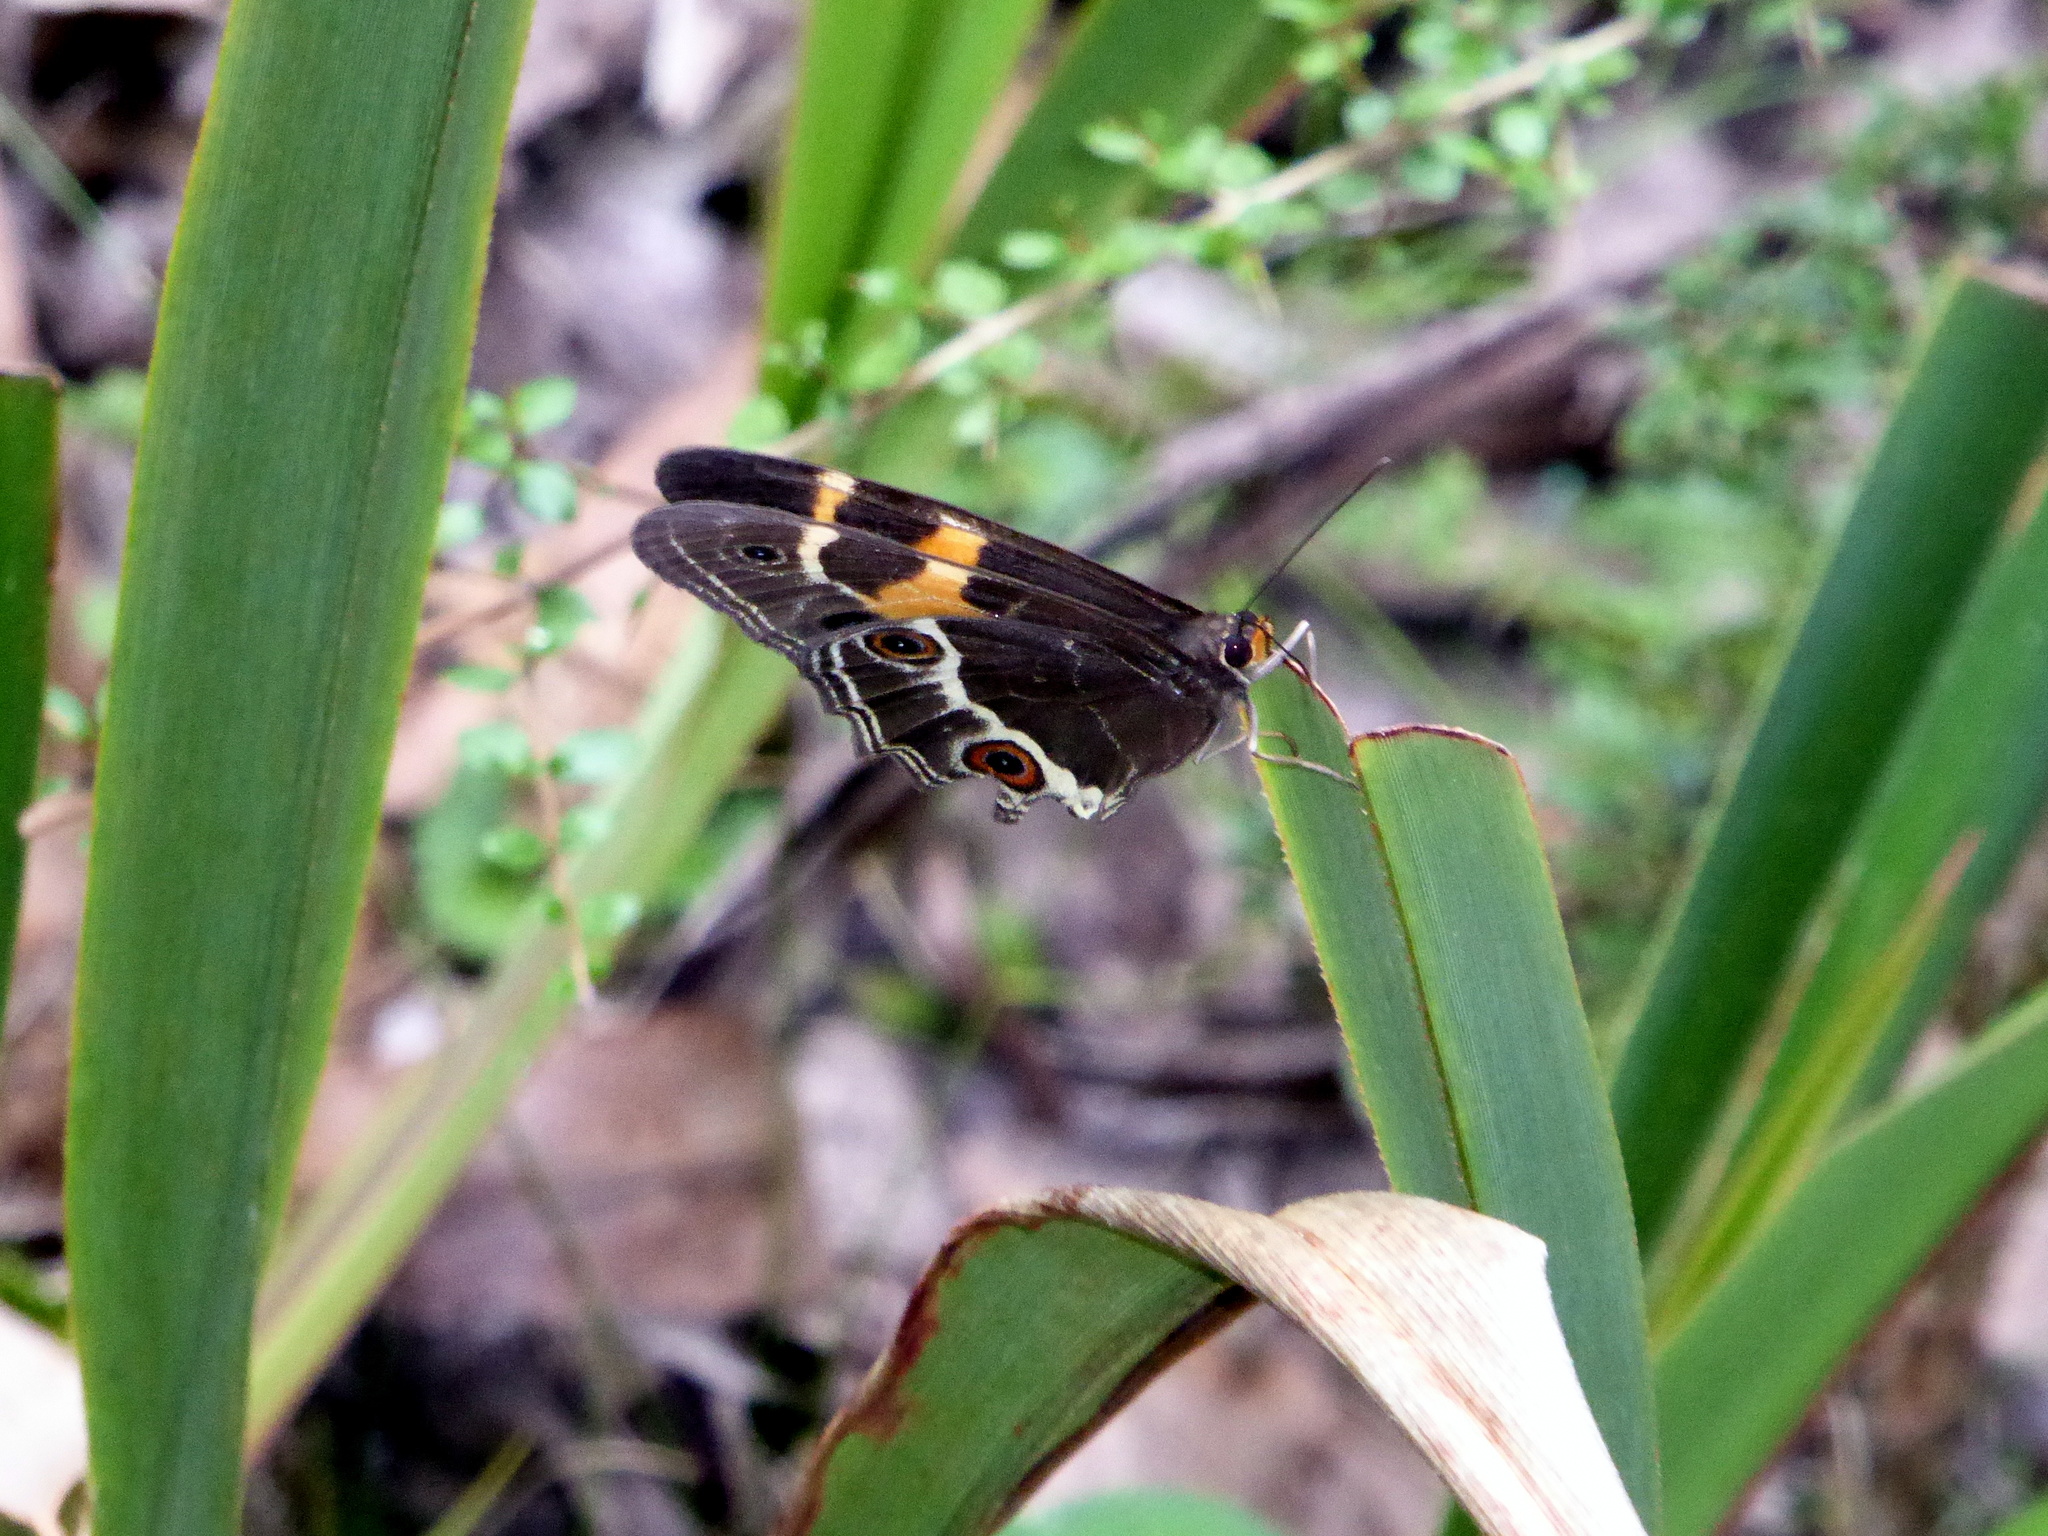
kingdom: Animalia
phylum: Arthropoda
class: Insecta
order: Lepidoptera
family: Nymphalidae
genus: Tisiphone
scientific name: Tisiphone abeona
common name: Swordgrass brown
